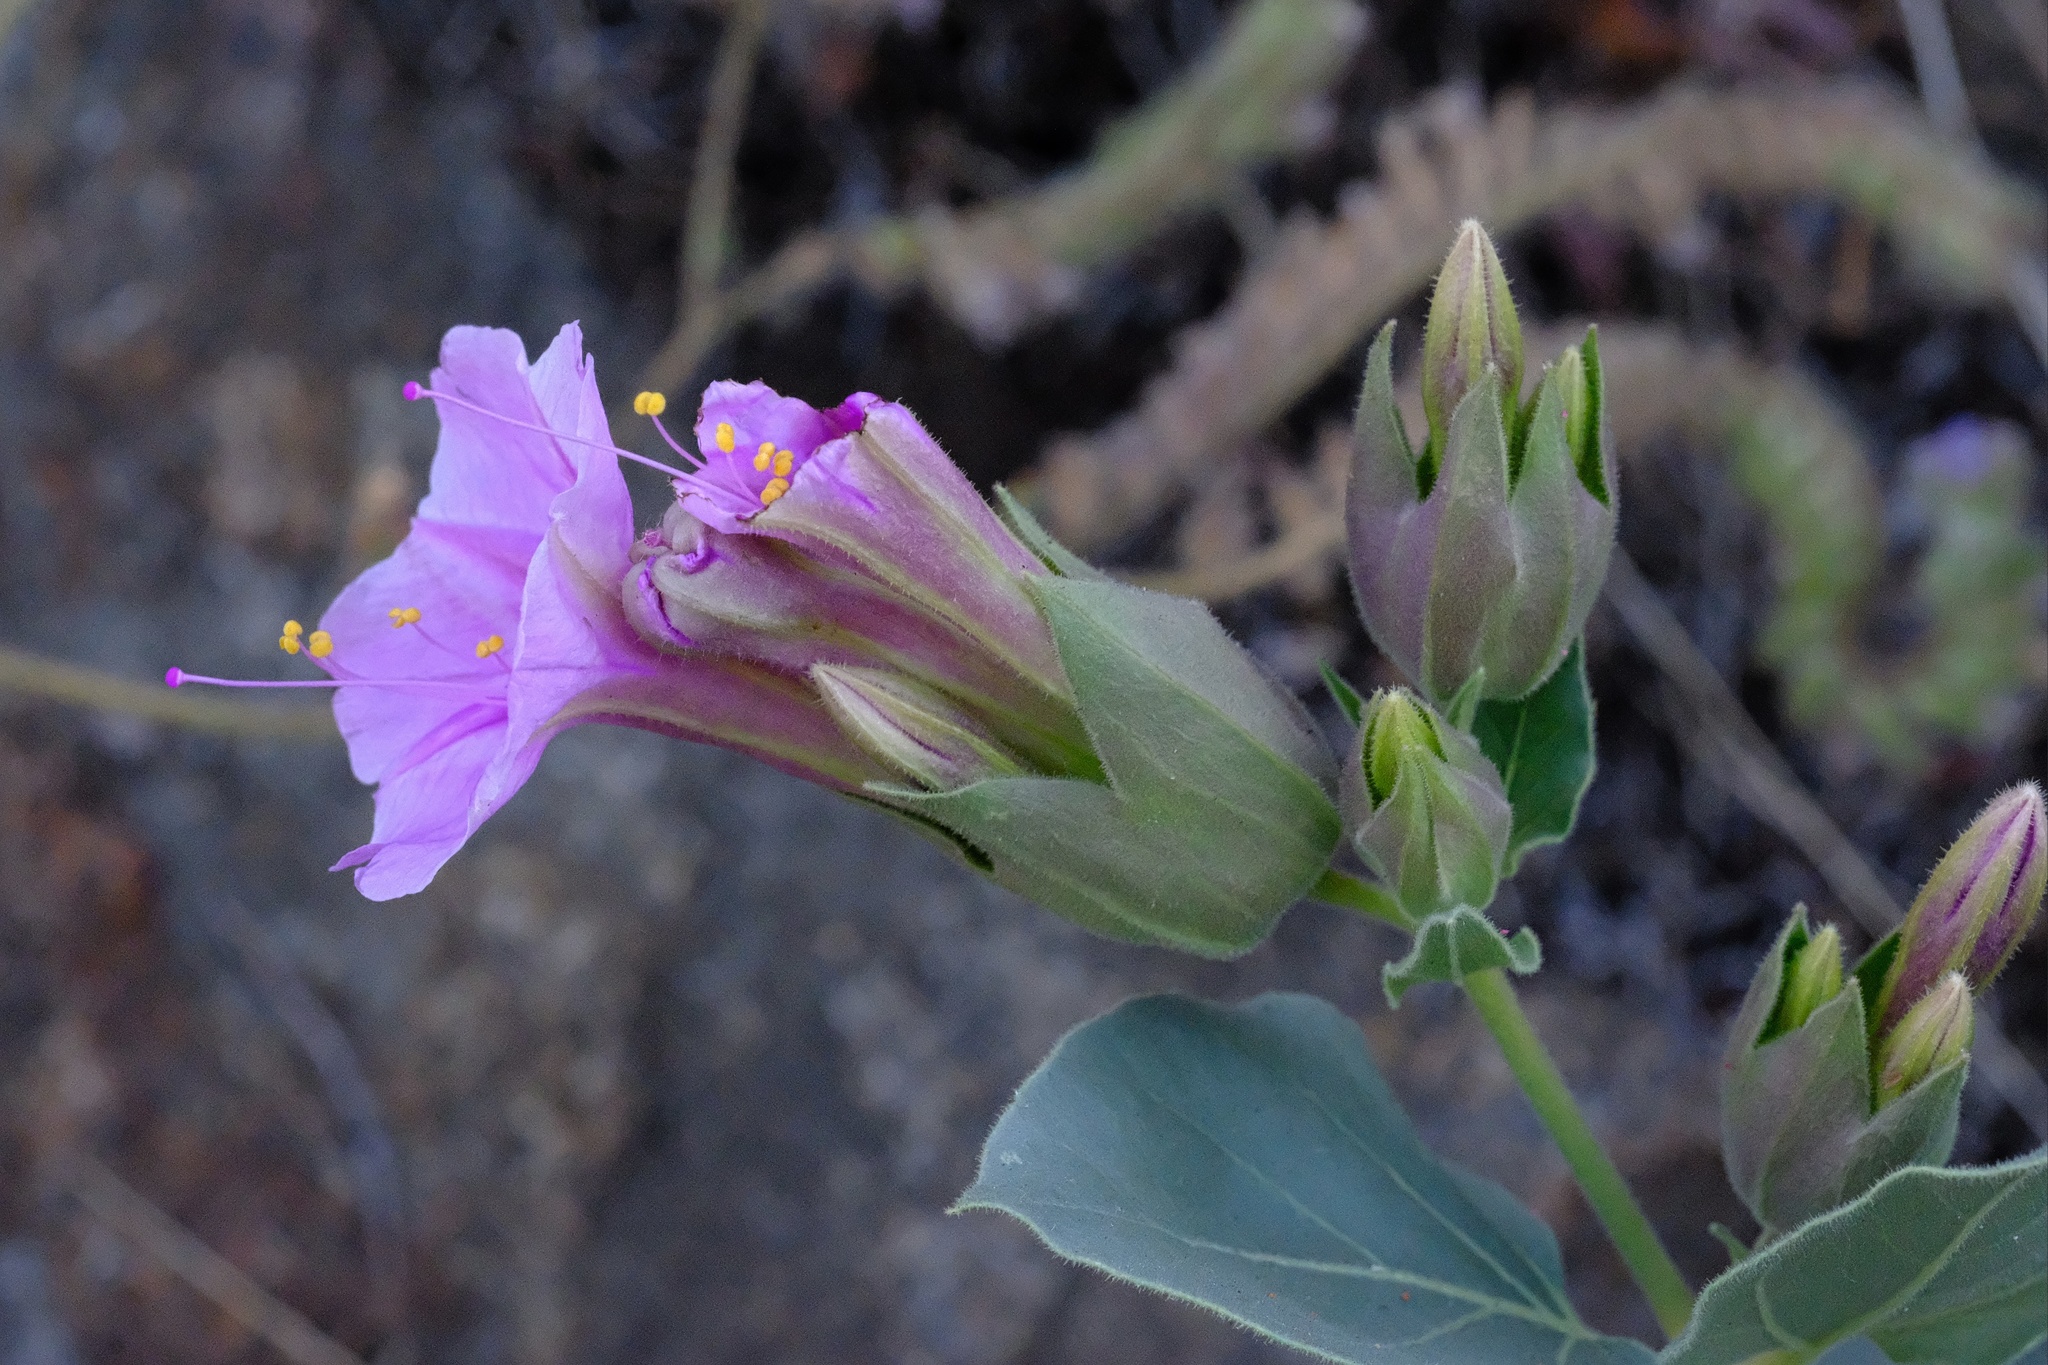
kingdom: Plantae
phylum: Tracheophyta
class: Magnoliopsida
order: Caryophyllales
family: Nyctaginaceae
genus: Mirabilis
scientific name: Mirabilis multiflora
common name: Froebel's four-o'clock
